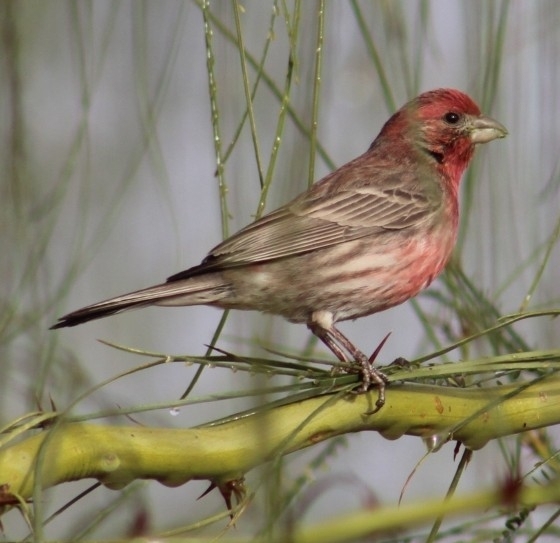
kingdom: Animalia
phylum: Chordata
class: Aves
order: Passeriformes
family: Fringillidae
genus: Haemorhous
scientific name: Haemorhous mexicanus
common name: House finch
